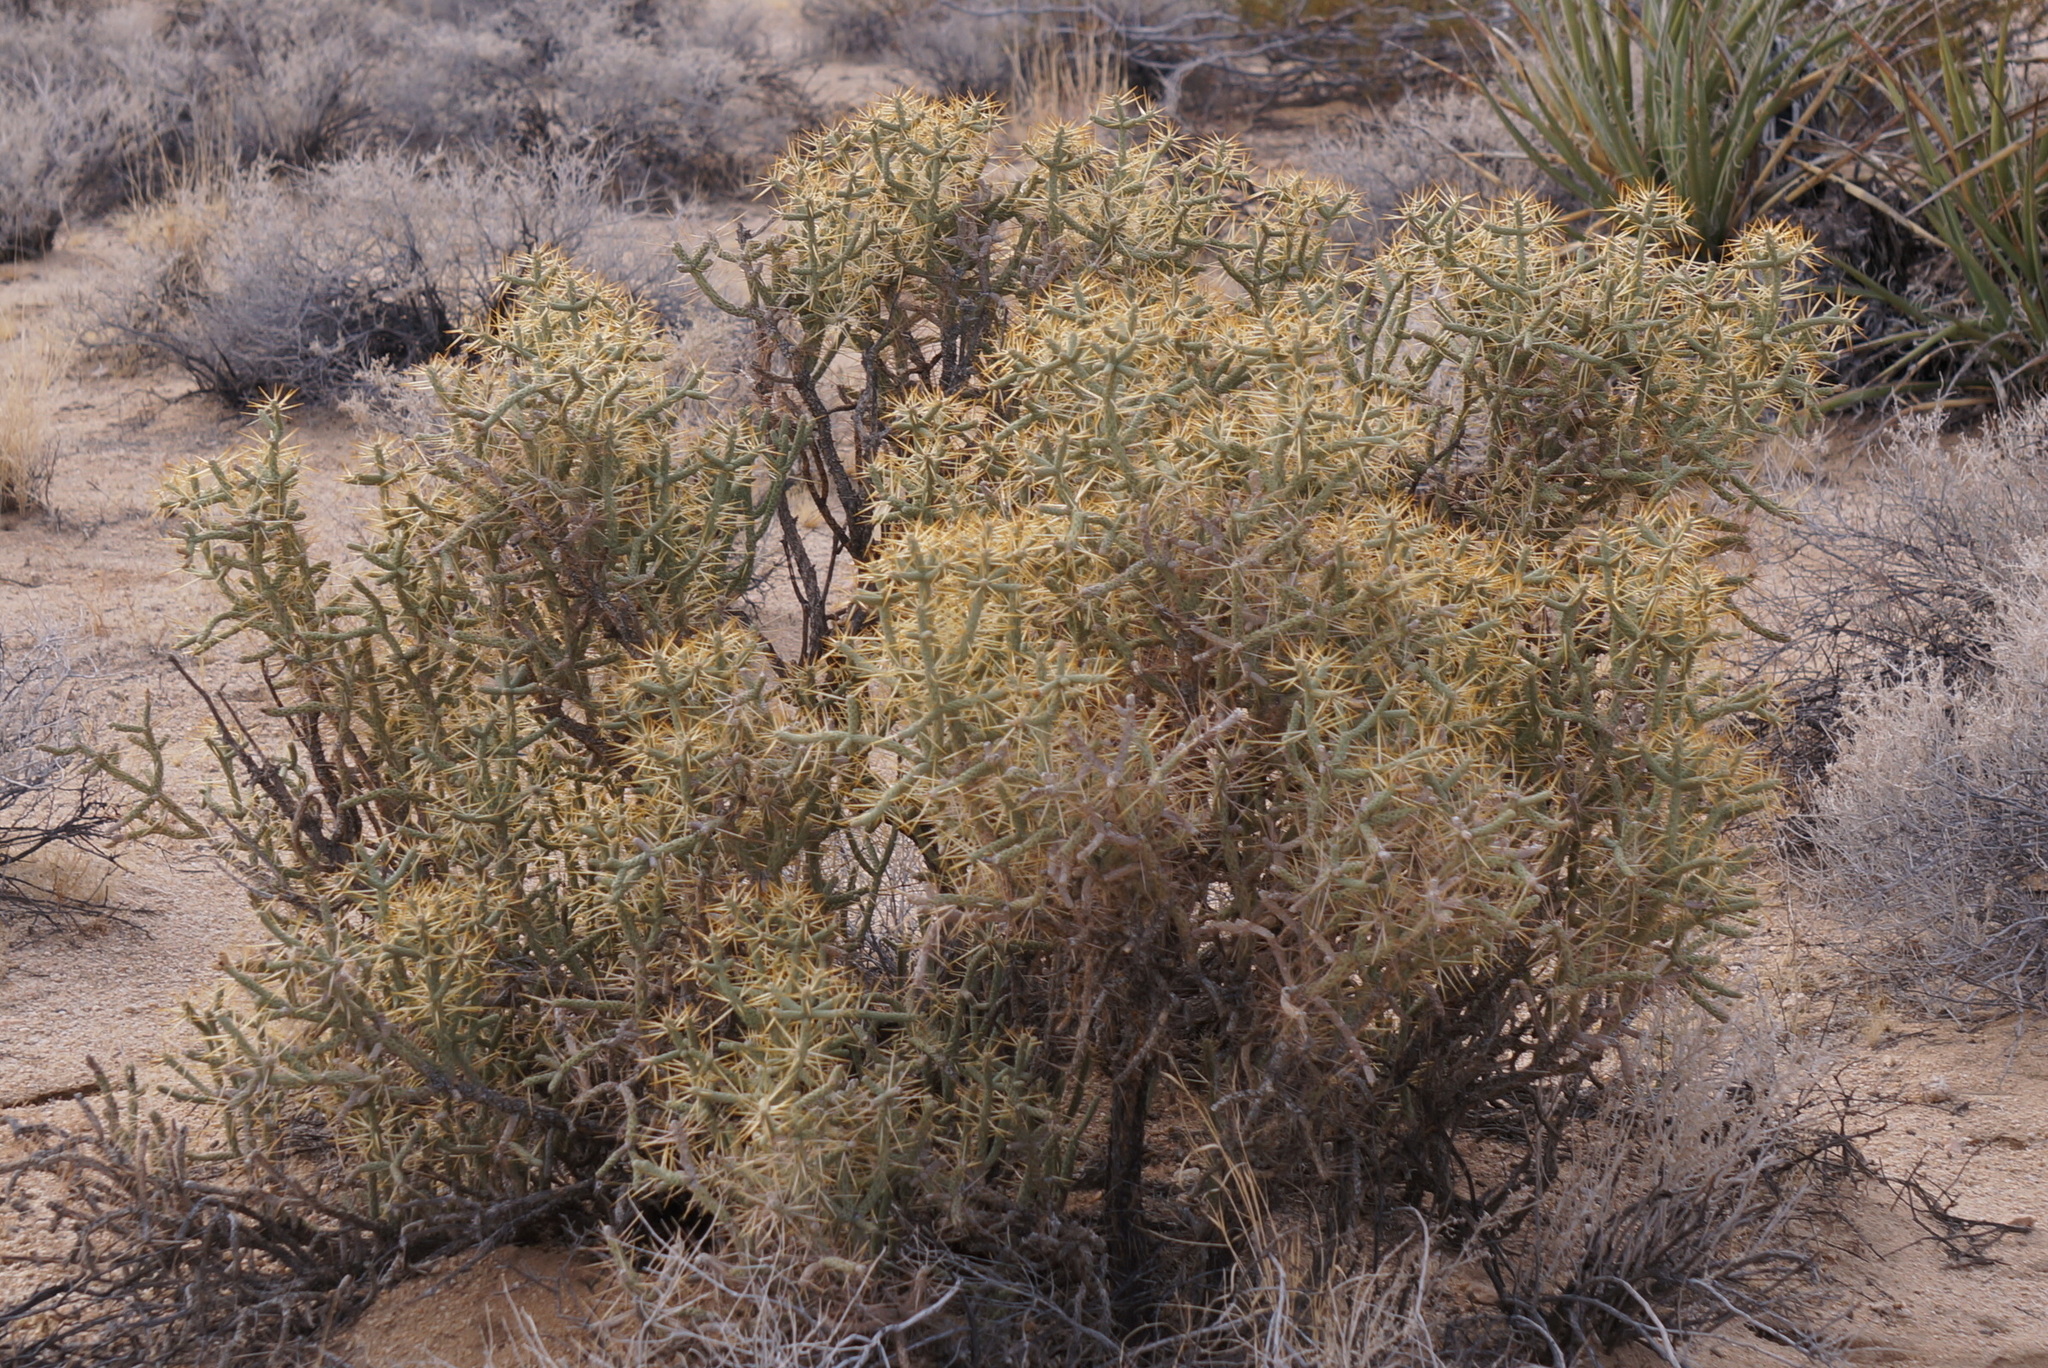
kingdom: Plantae
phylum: Tracheophyta
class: Magnoliopsida
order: Caryophyllales
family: Cactaceae
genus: Cylindropuntia
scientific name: Cylindropuntia ramosissima
